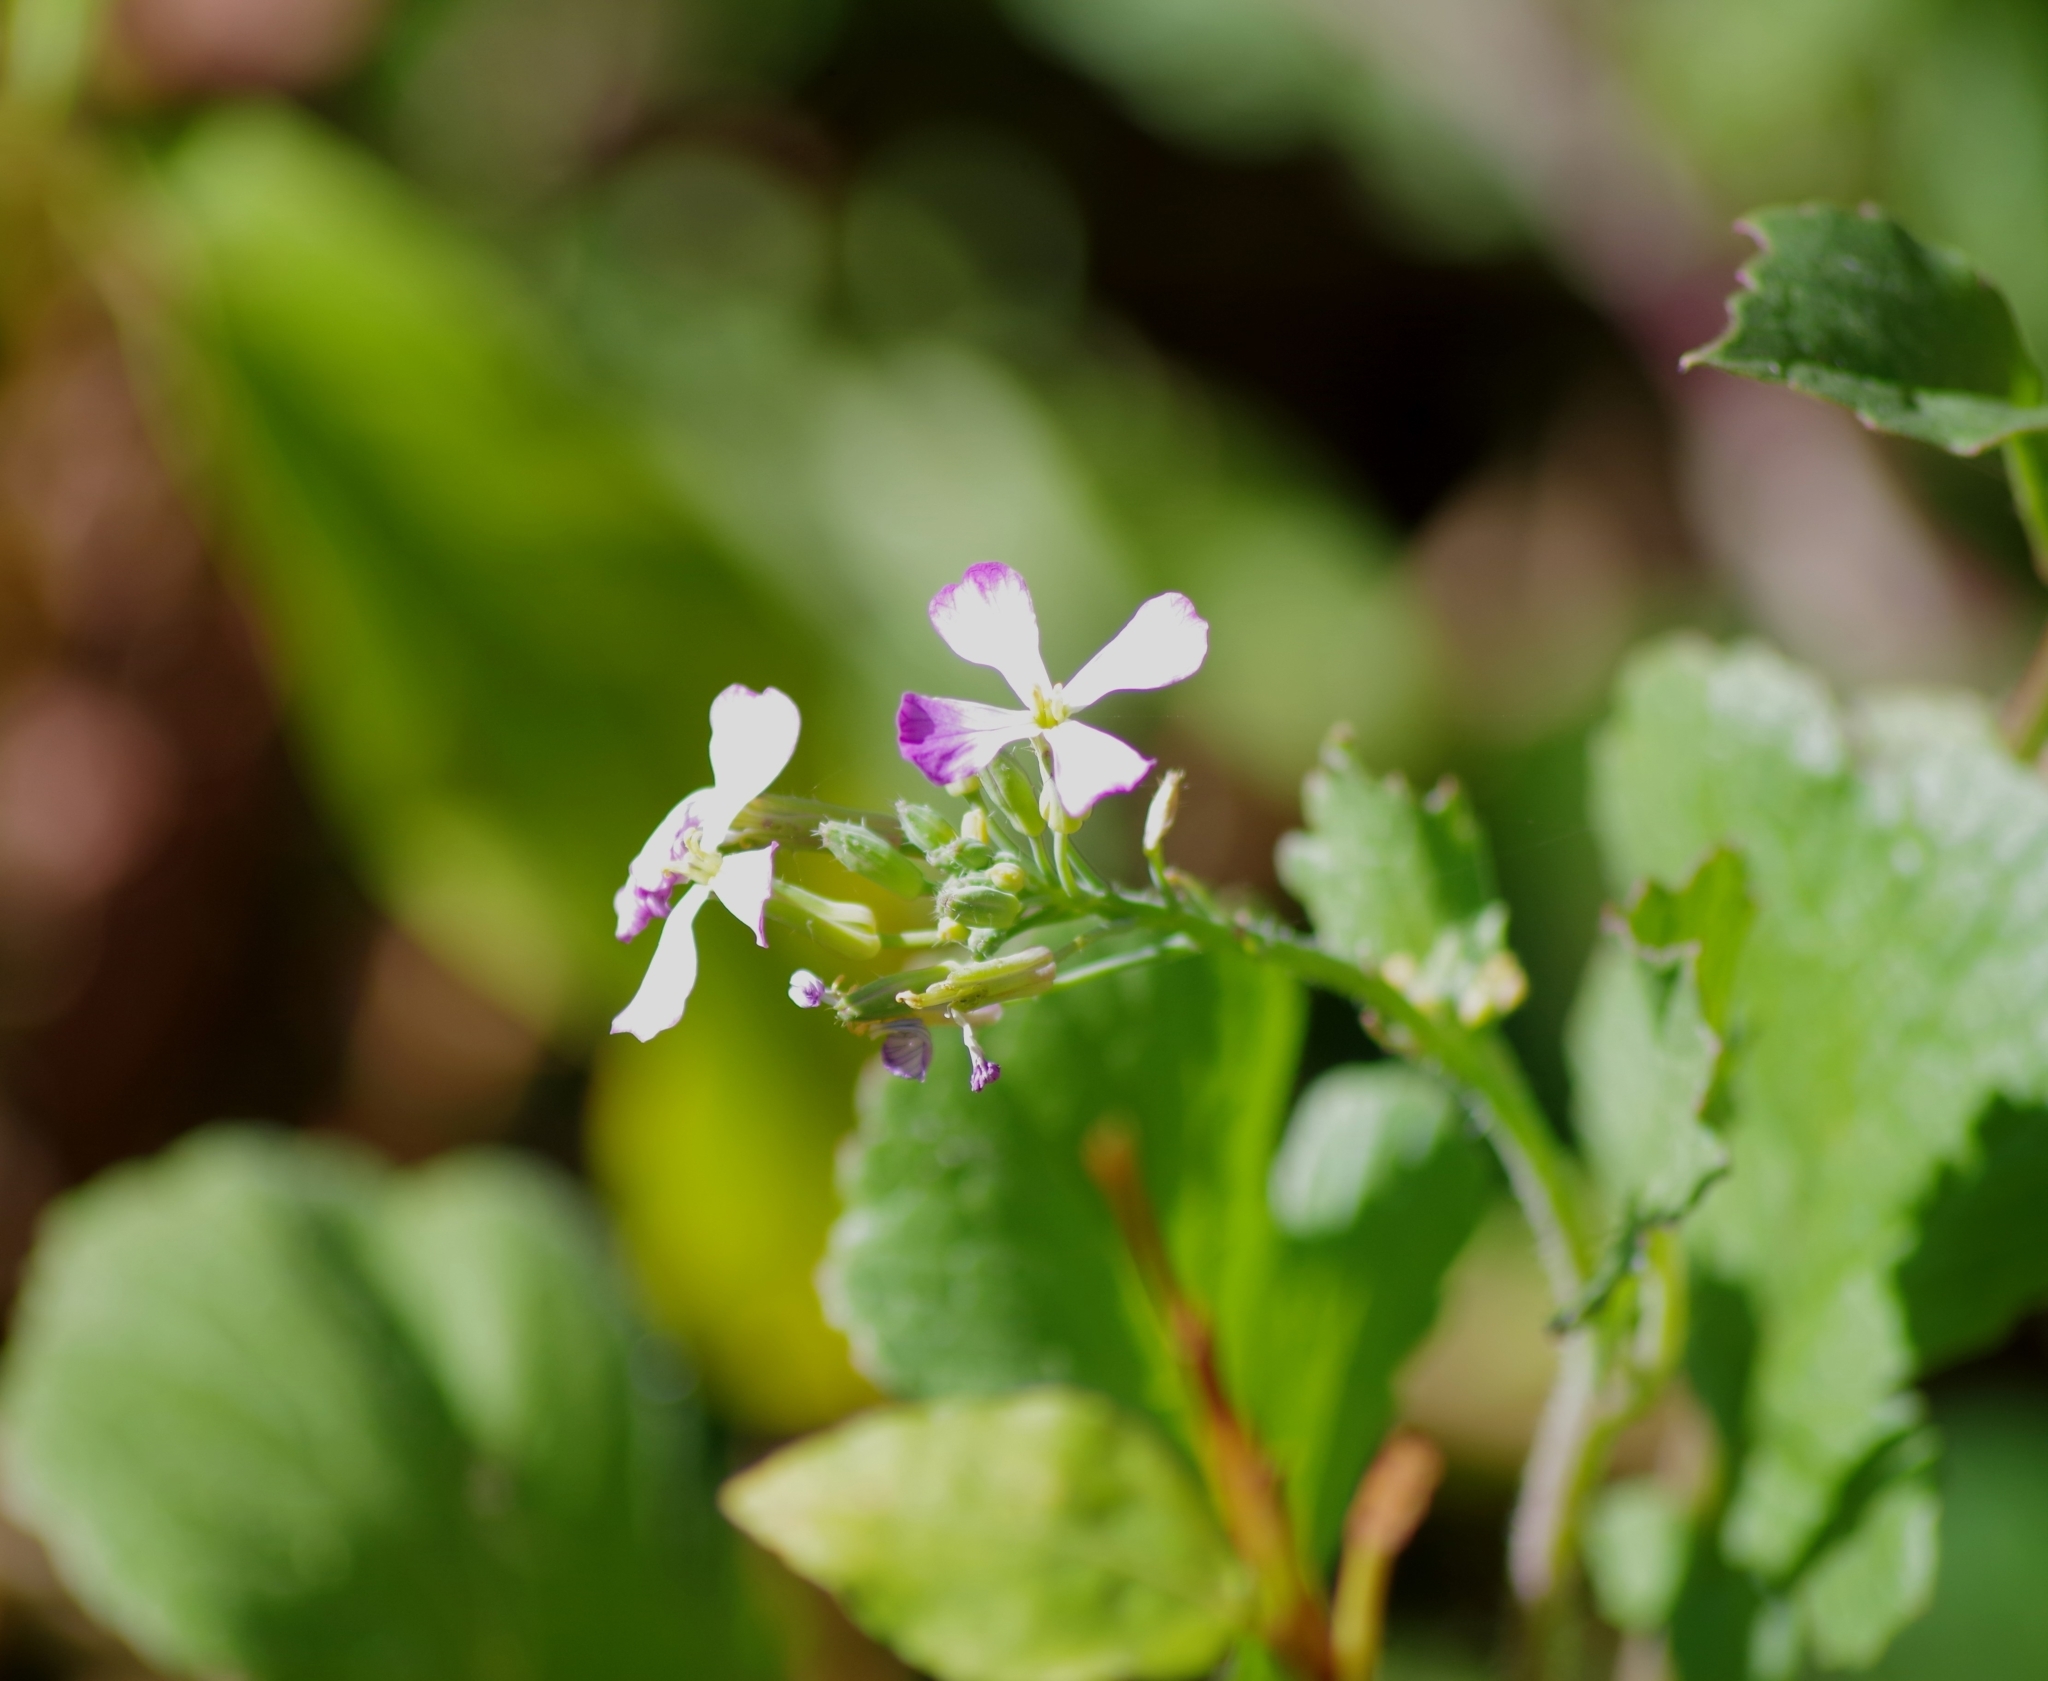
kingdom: Plantae
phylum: Tracheophyta
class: Magnoliopsida
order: Brassicales
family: Brassicaceae
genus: Raphanus
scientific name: Raphanus sativus
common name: Cultivated radish
